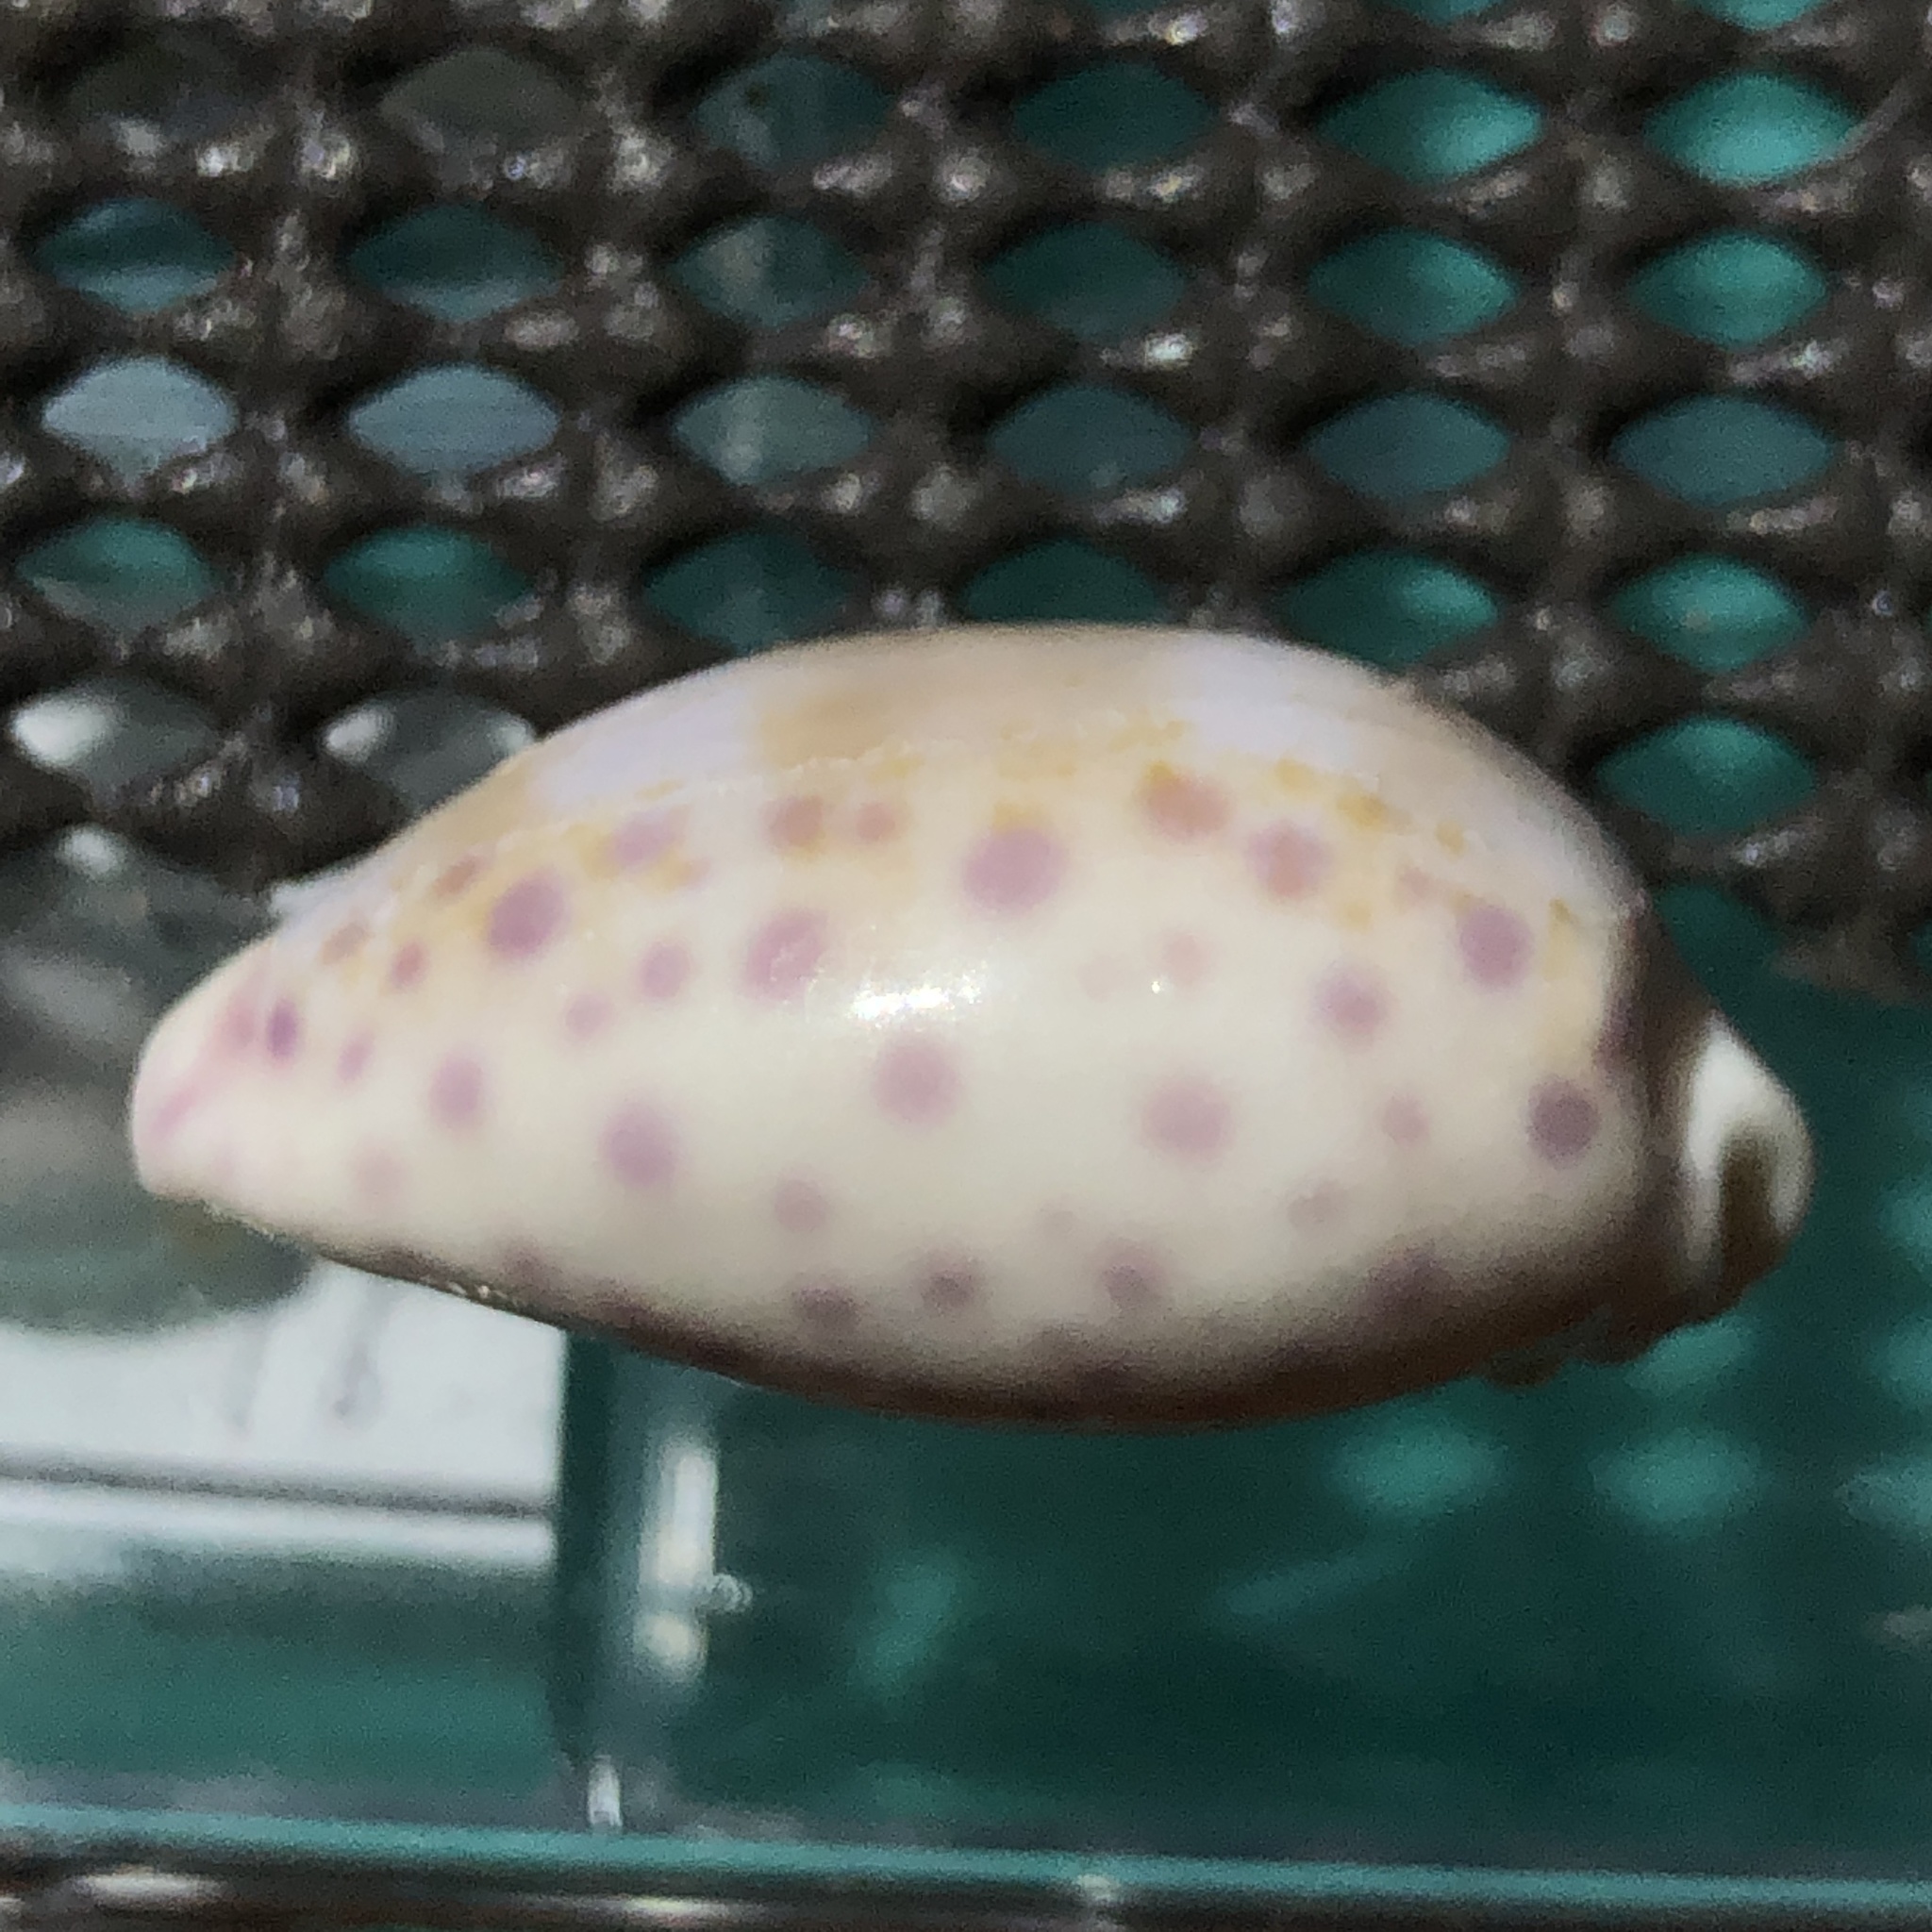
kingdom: Animalia
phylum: Mollusca
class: Gastropoda
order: Littorinimorpha
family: Cypraeidae
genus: Ovatipsa
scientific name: Ovatipsa chinensis
